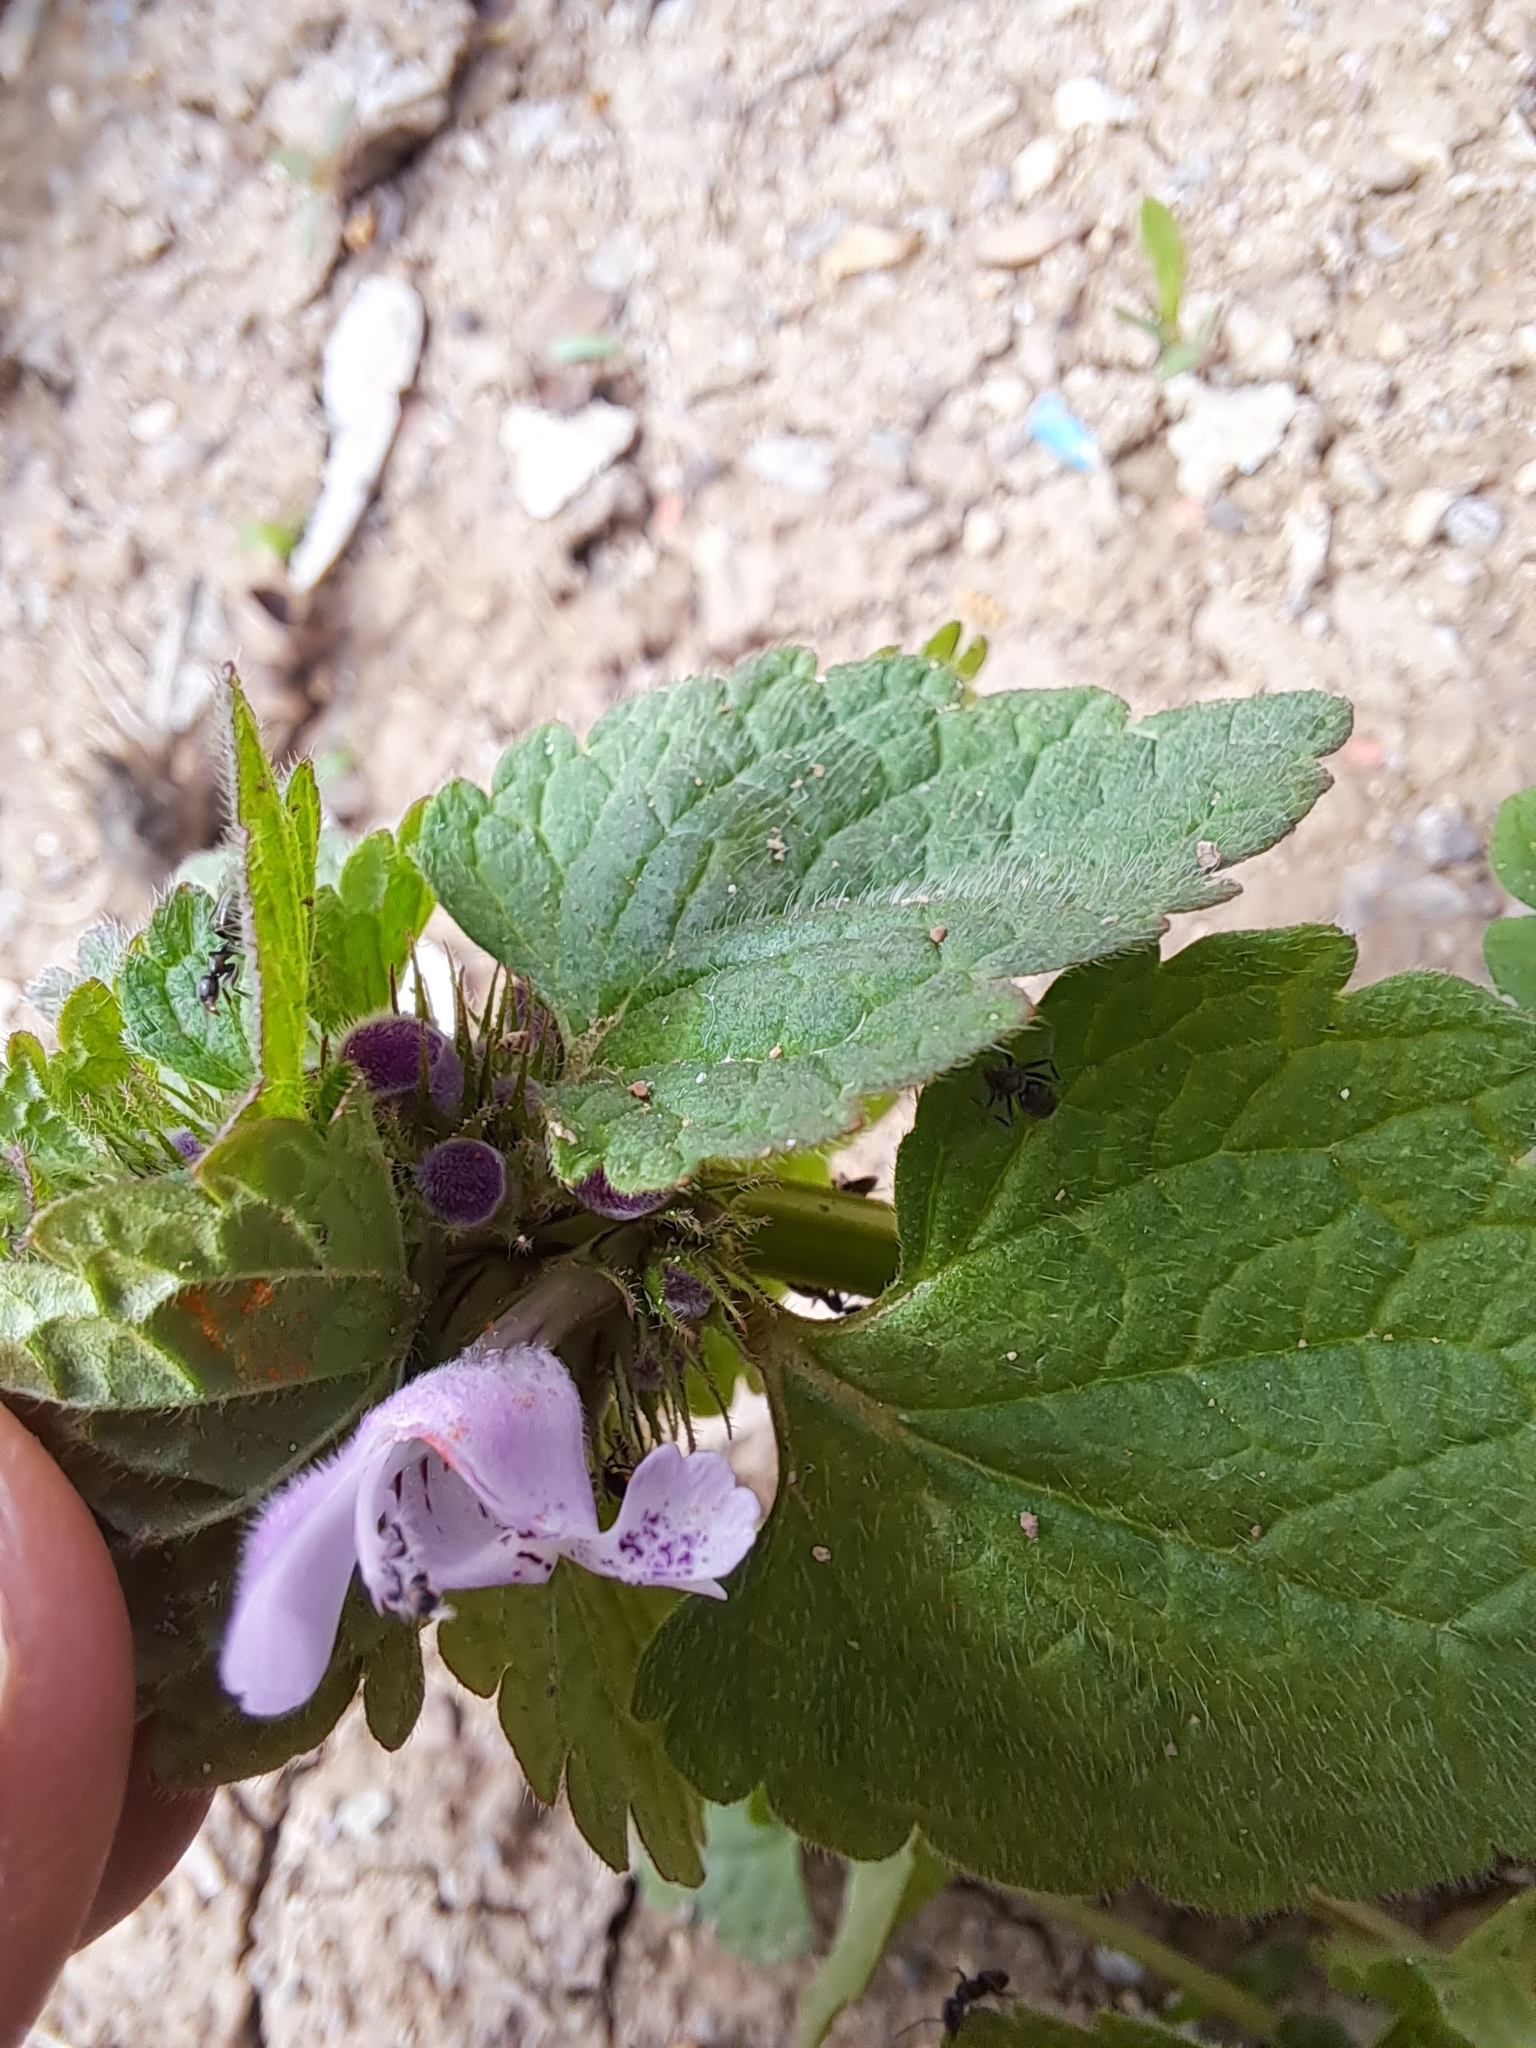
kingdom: Plantae
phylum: Tracheophyta
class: Magnoliopsida
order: Lamiales
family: Lamiaceae
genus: Lamium
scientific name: Lamium purpureum
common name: Red dead-nettle
